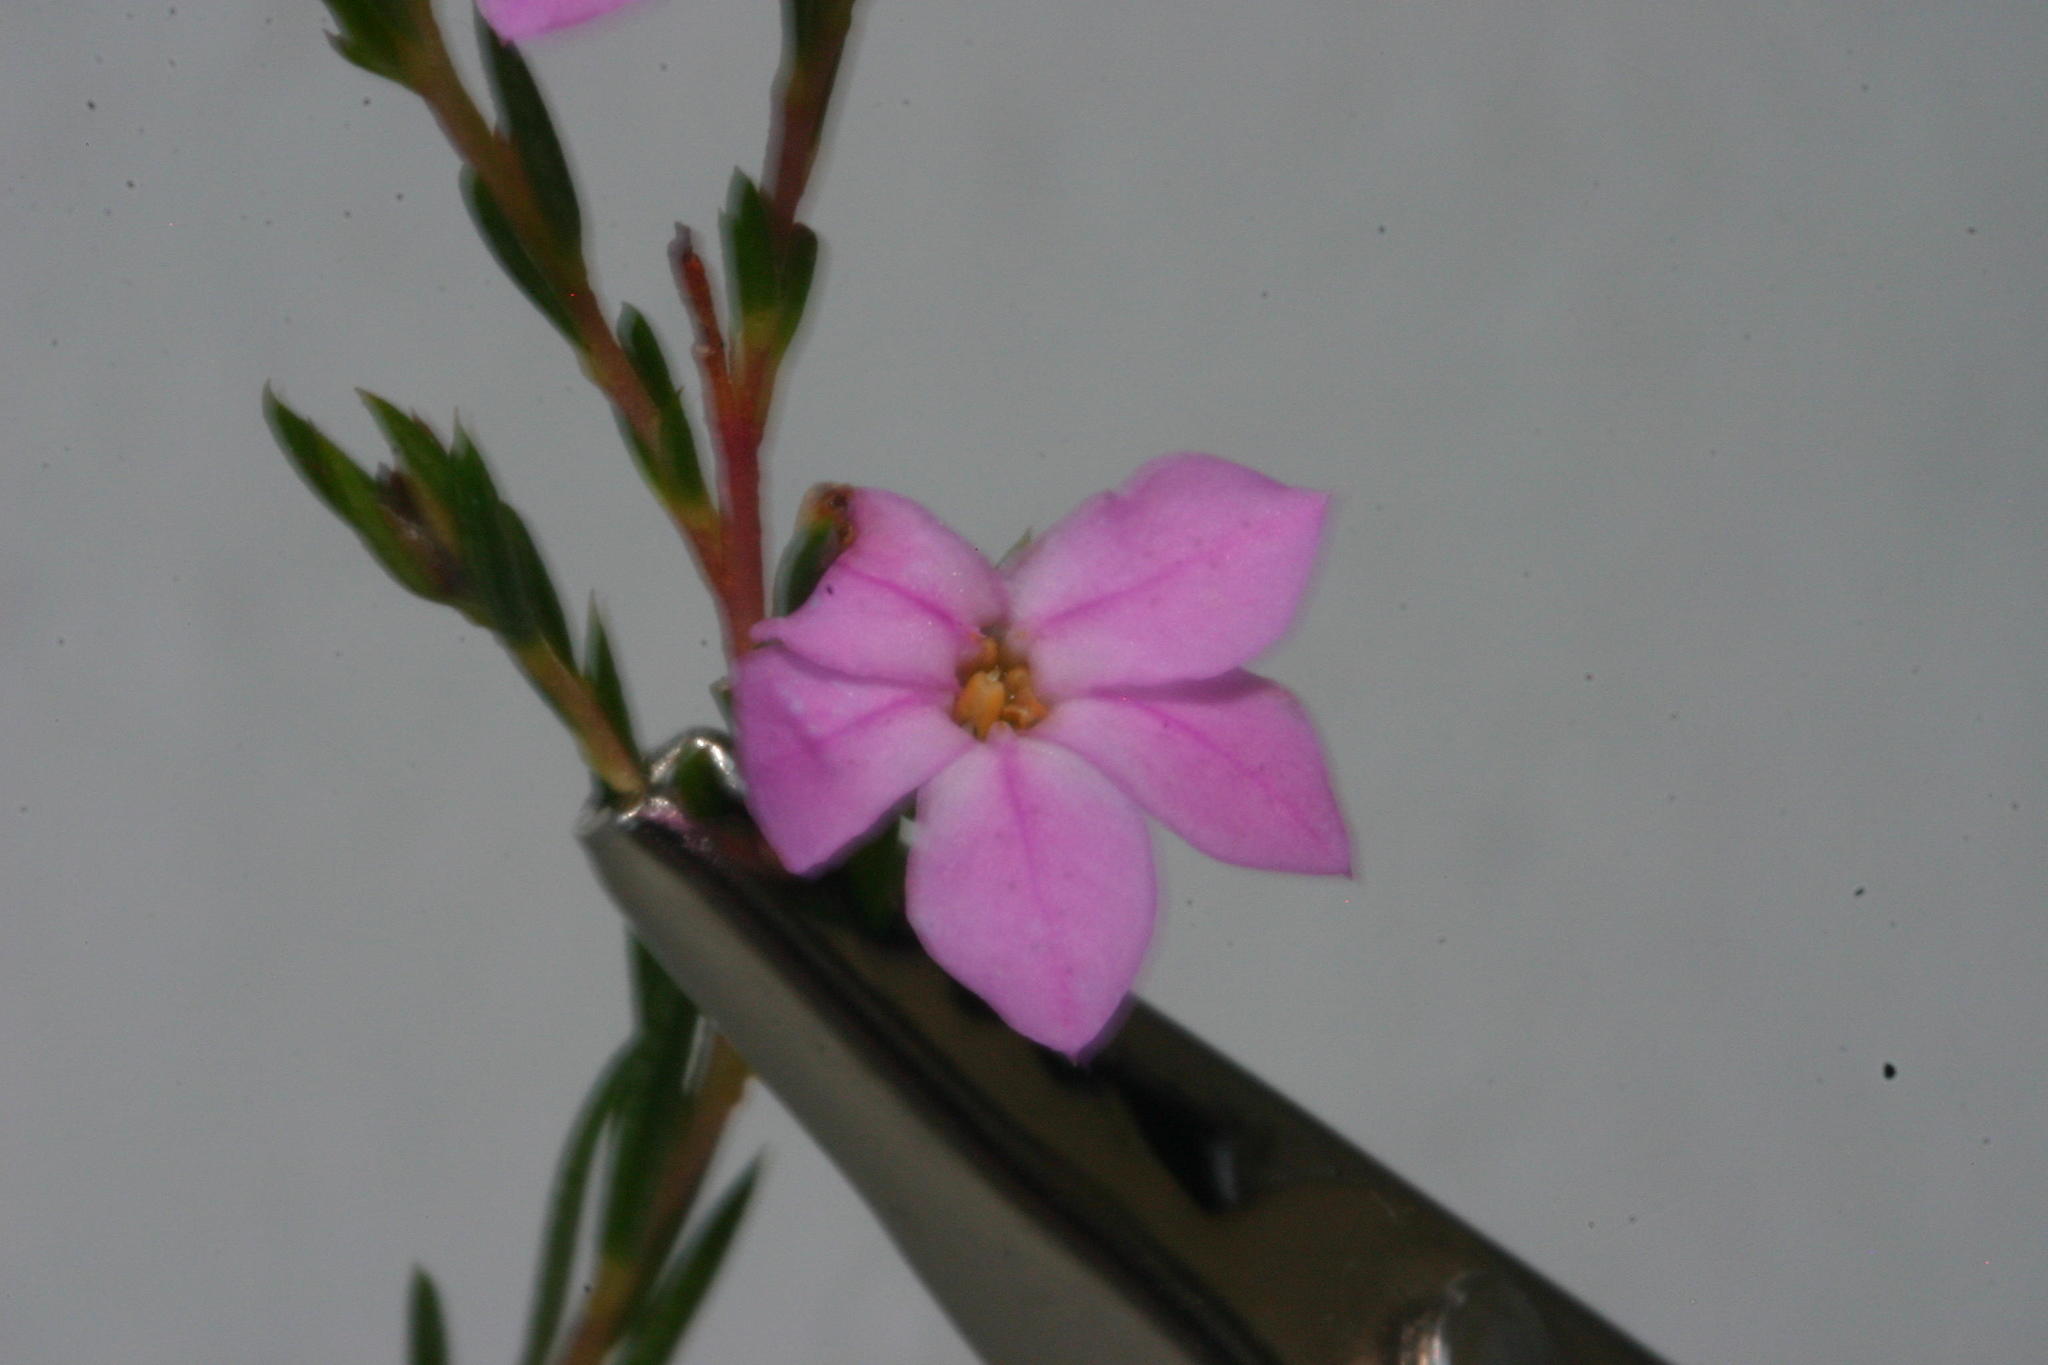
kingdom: Plantae
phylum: Tracheophyta
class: Magnoliopsida
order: Sapindales
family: Rutaceae
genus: Acmadenia
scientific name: Acmadenia nivenii
